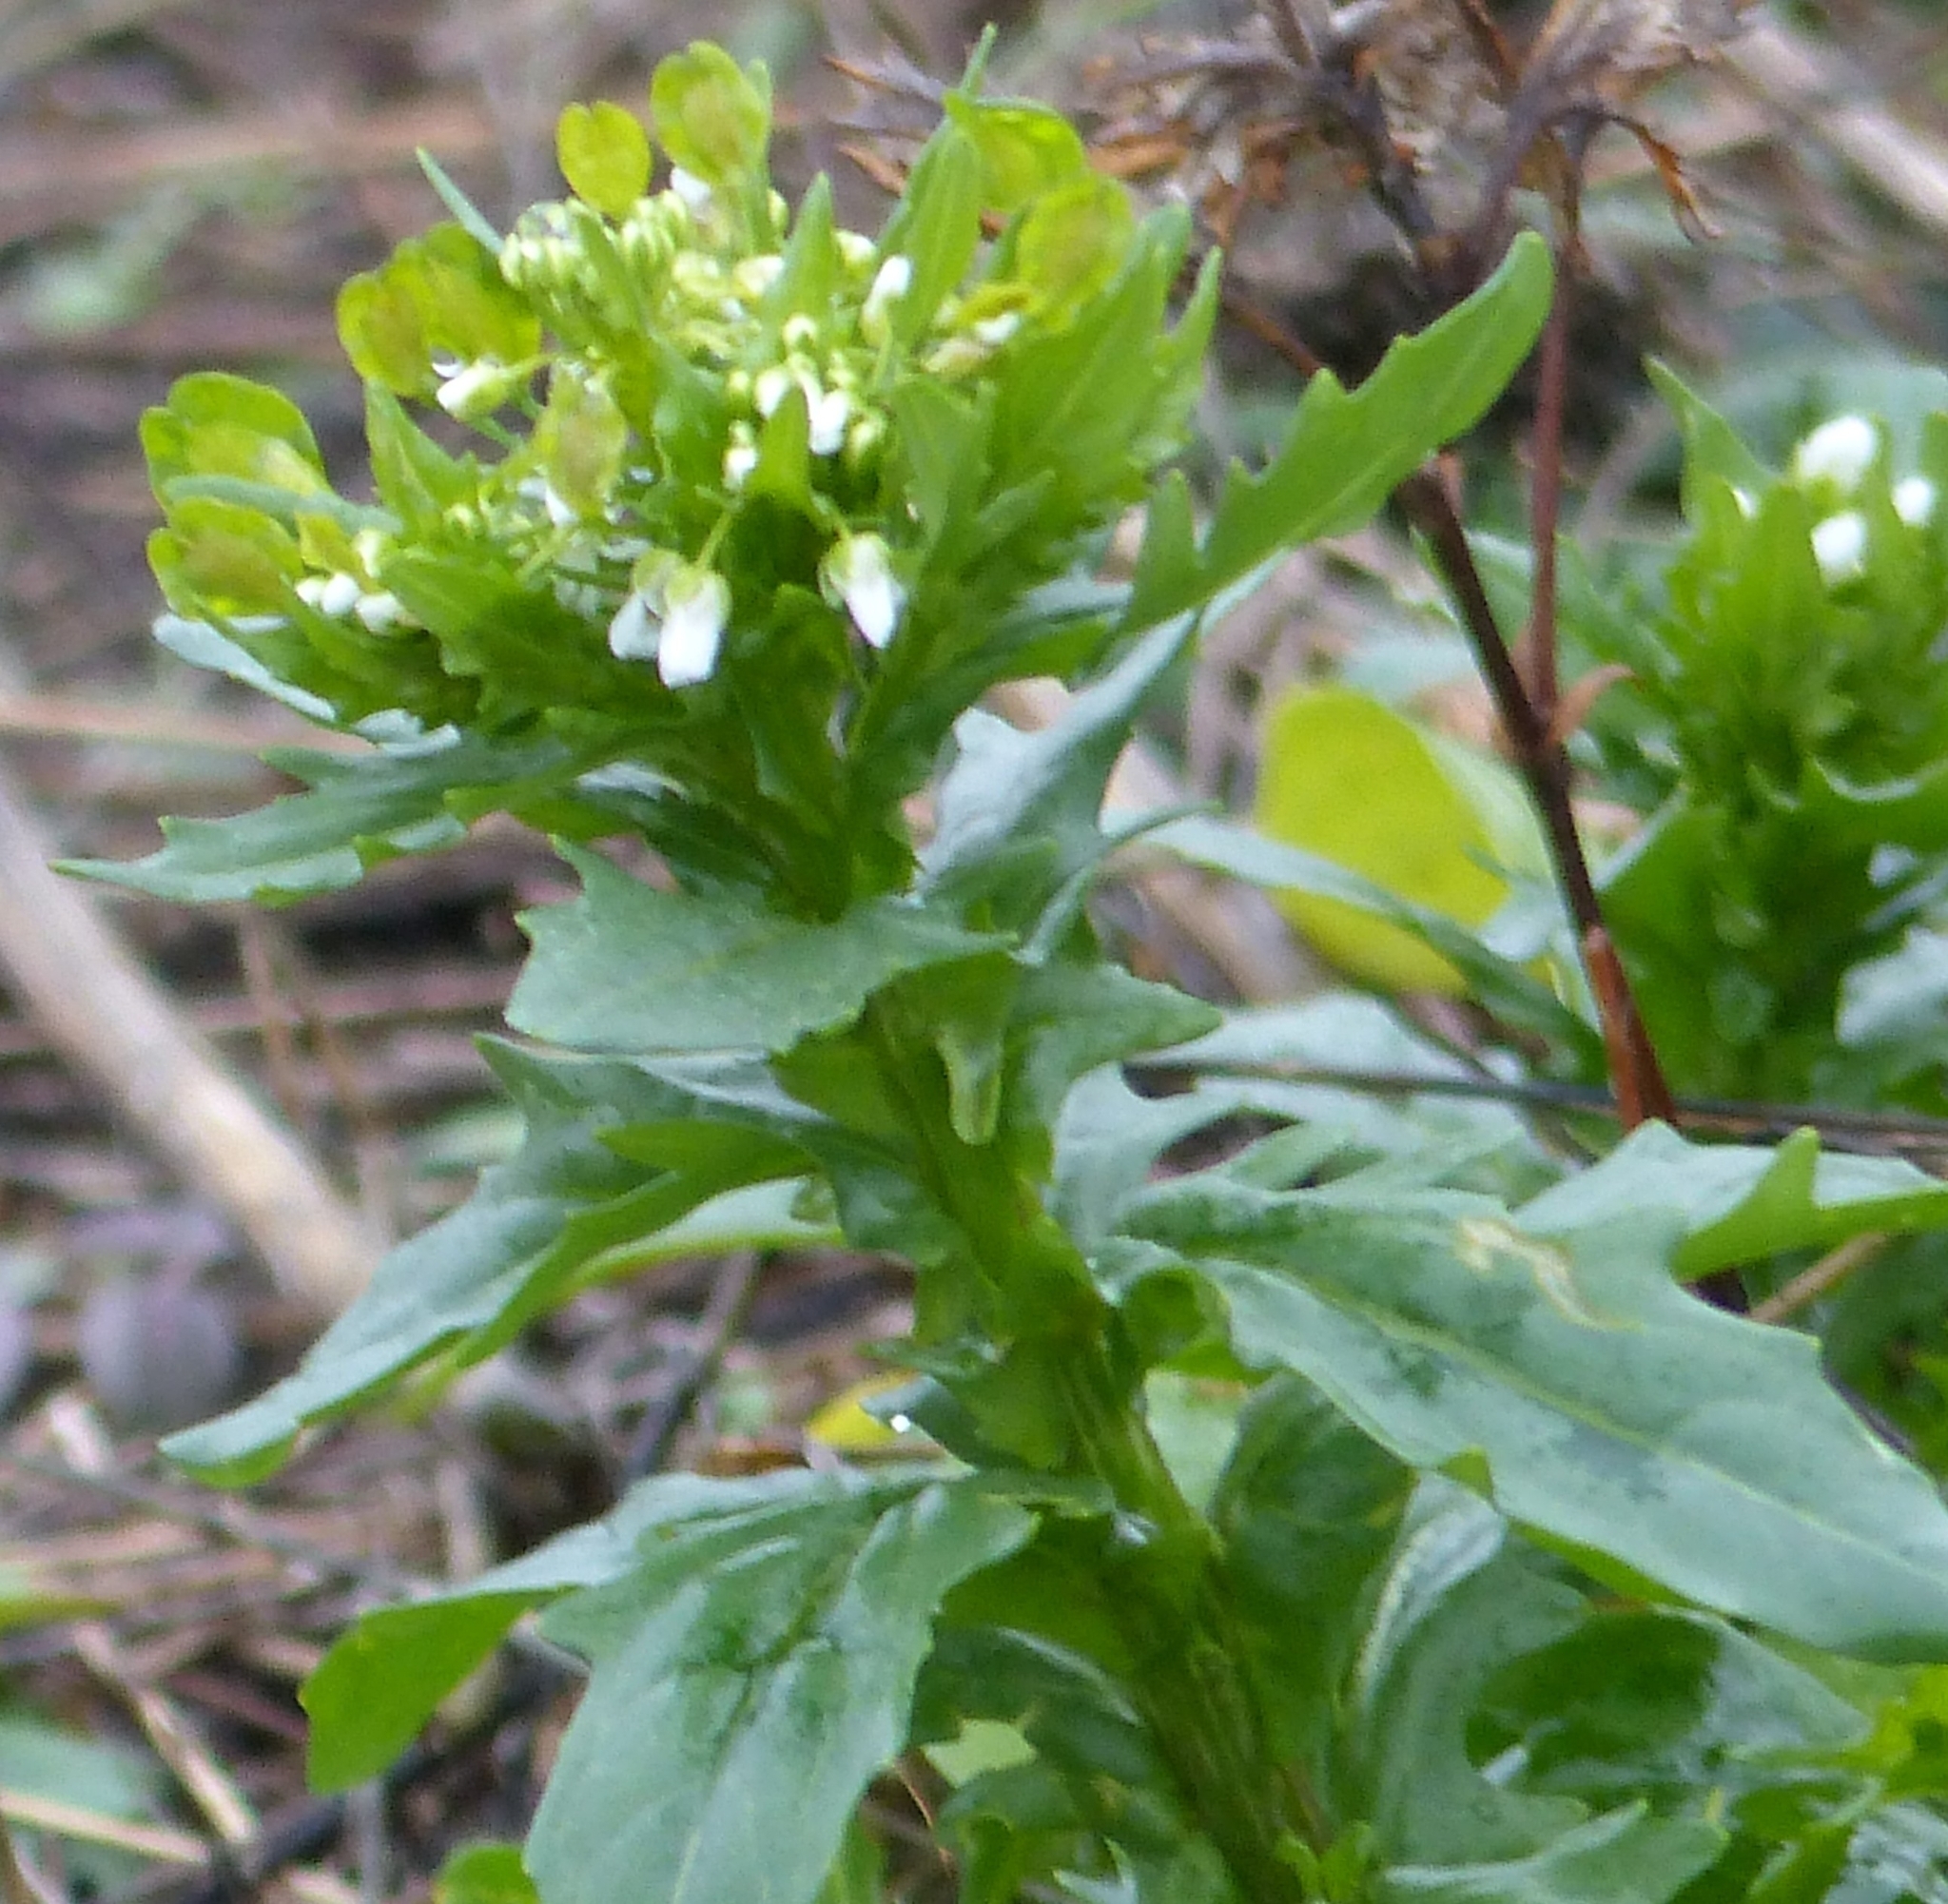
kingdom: Plantae
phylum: Tracheophyta
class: Magnoliopsida
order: Brassicales
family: Brassicaceae
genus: Thlaspi
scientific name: Thlaspi arvense
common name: Field pennycress
